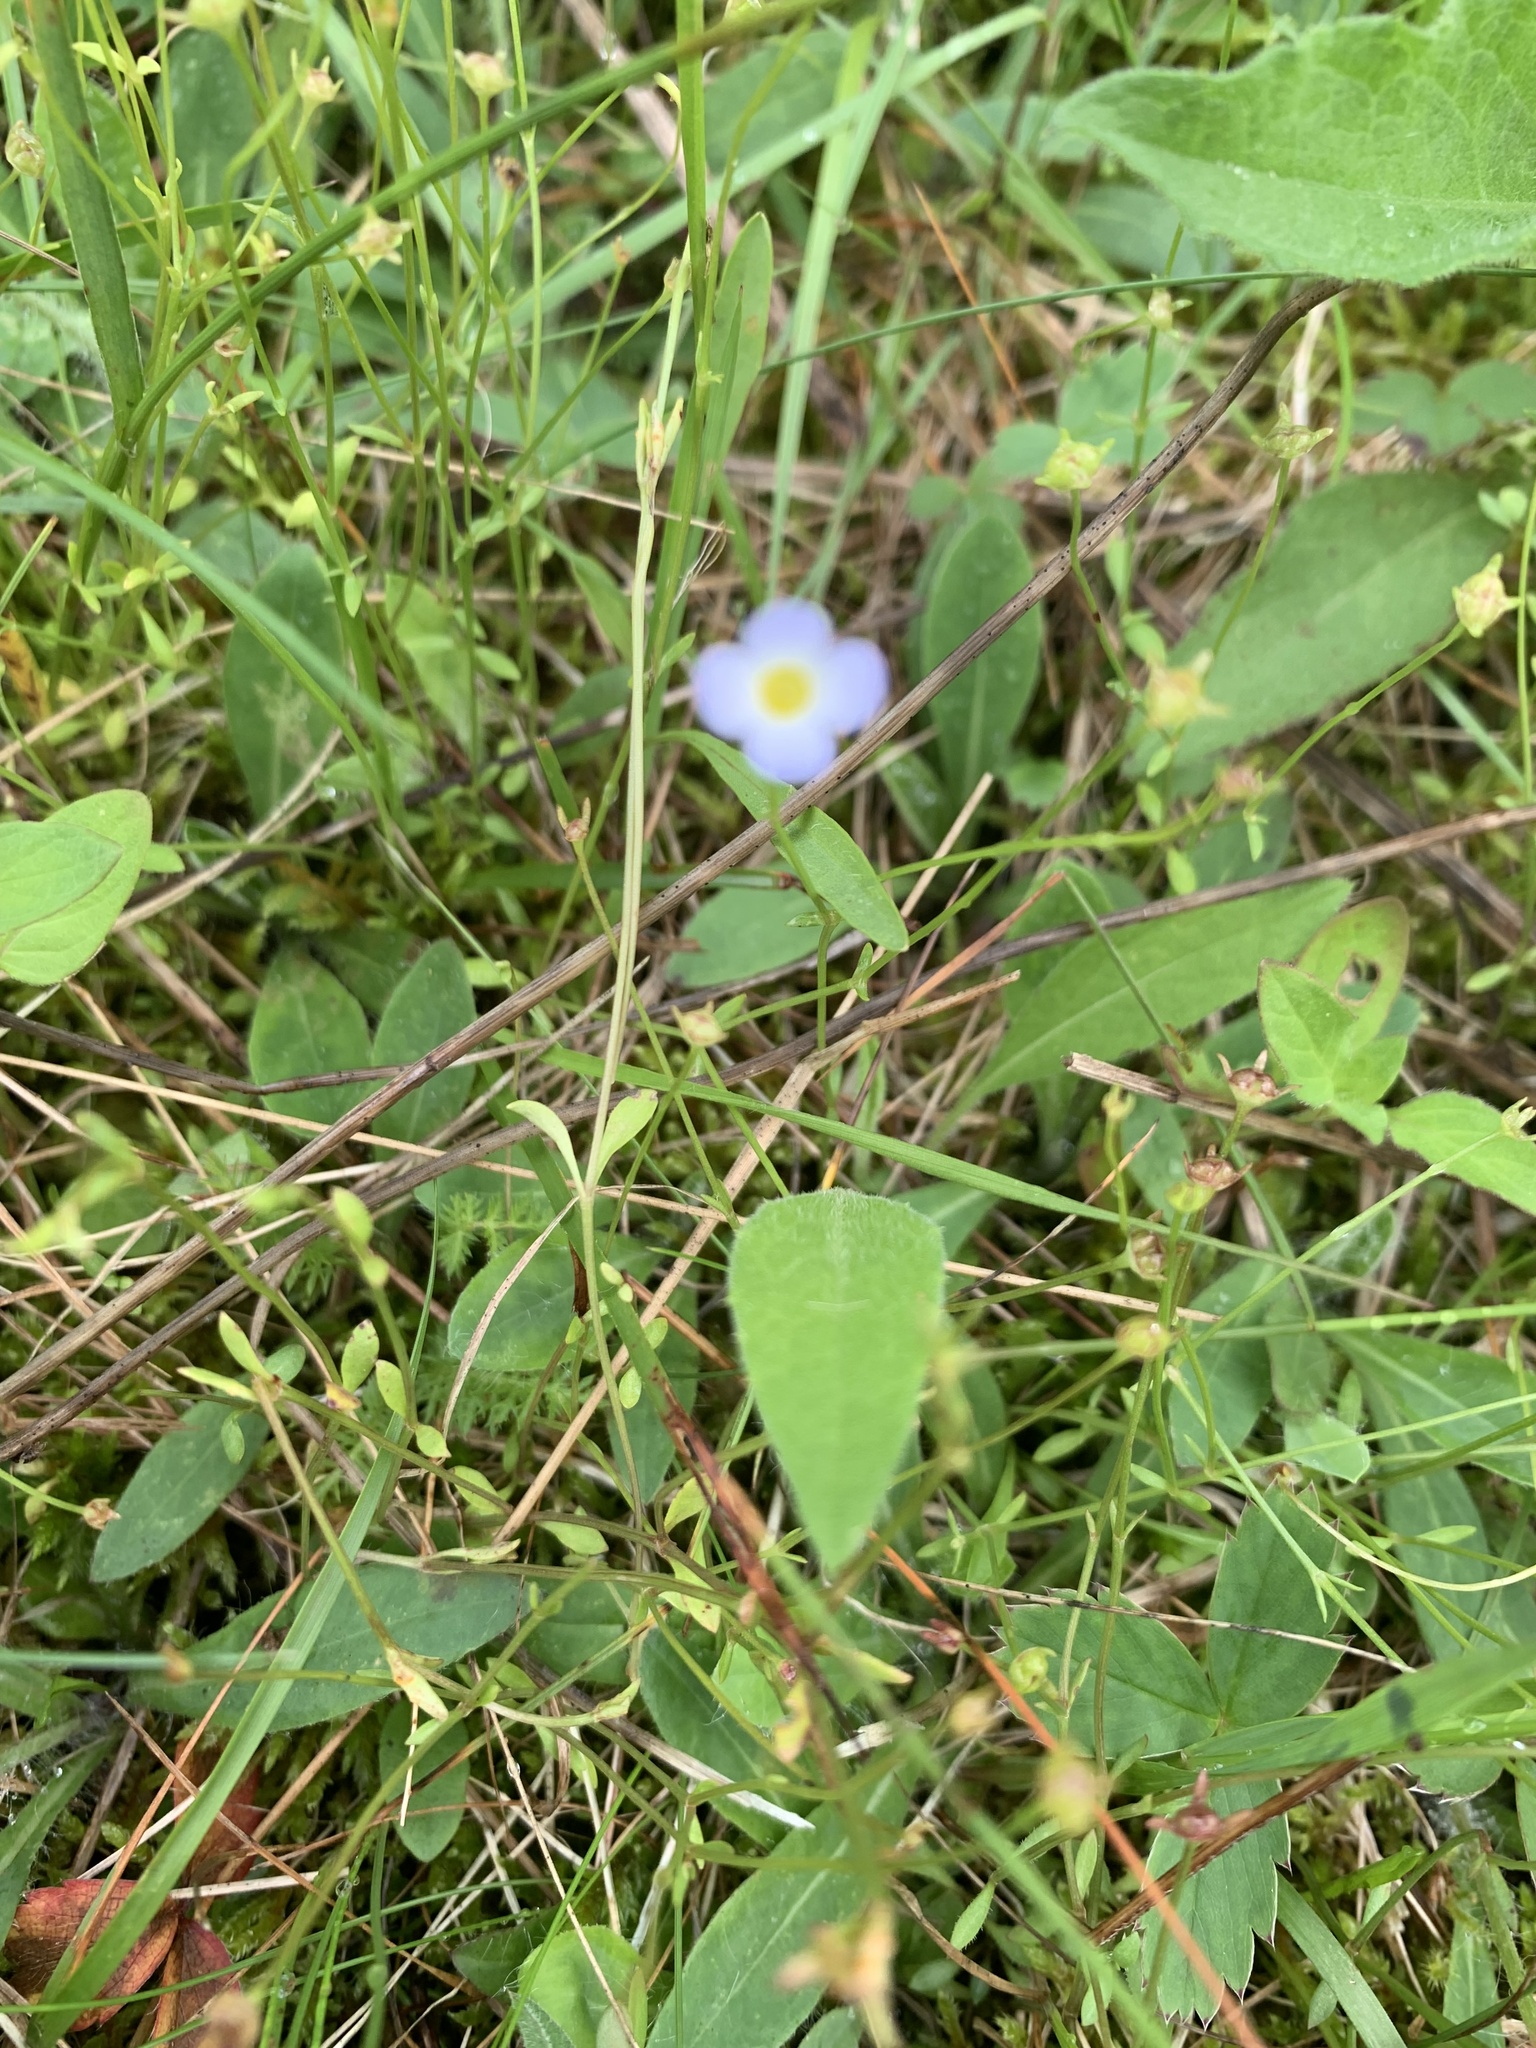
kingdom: Plantae
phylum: Tracheophyta
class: Magnoliopsida
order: Gentianales
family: Rubiaceae
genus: Houstonia
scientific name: Houstonia caerulea
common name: Bluets
